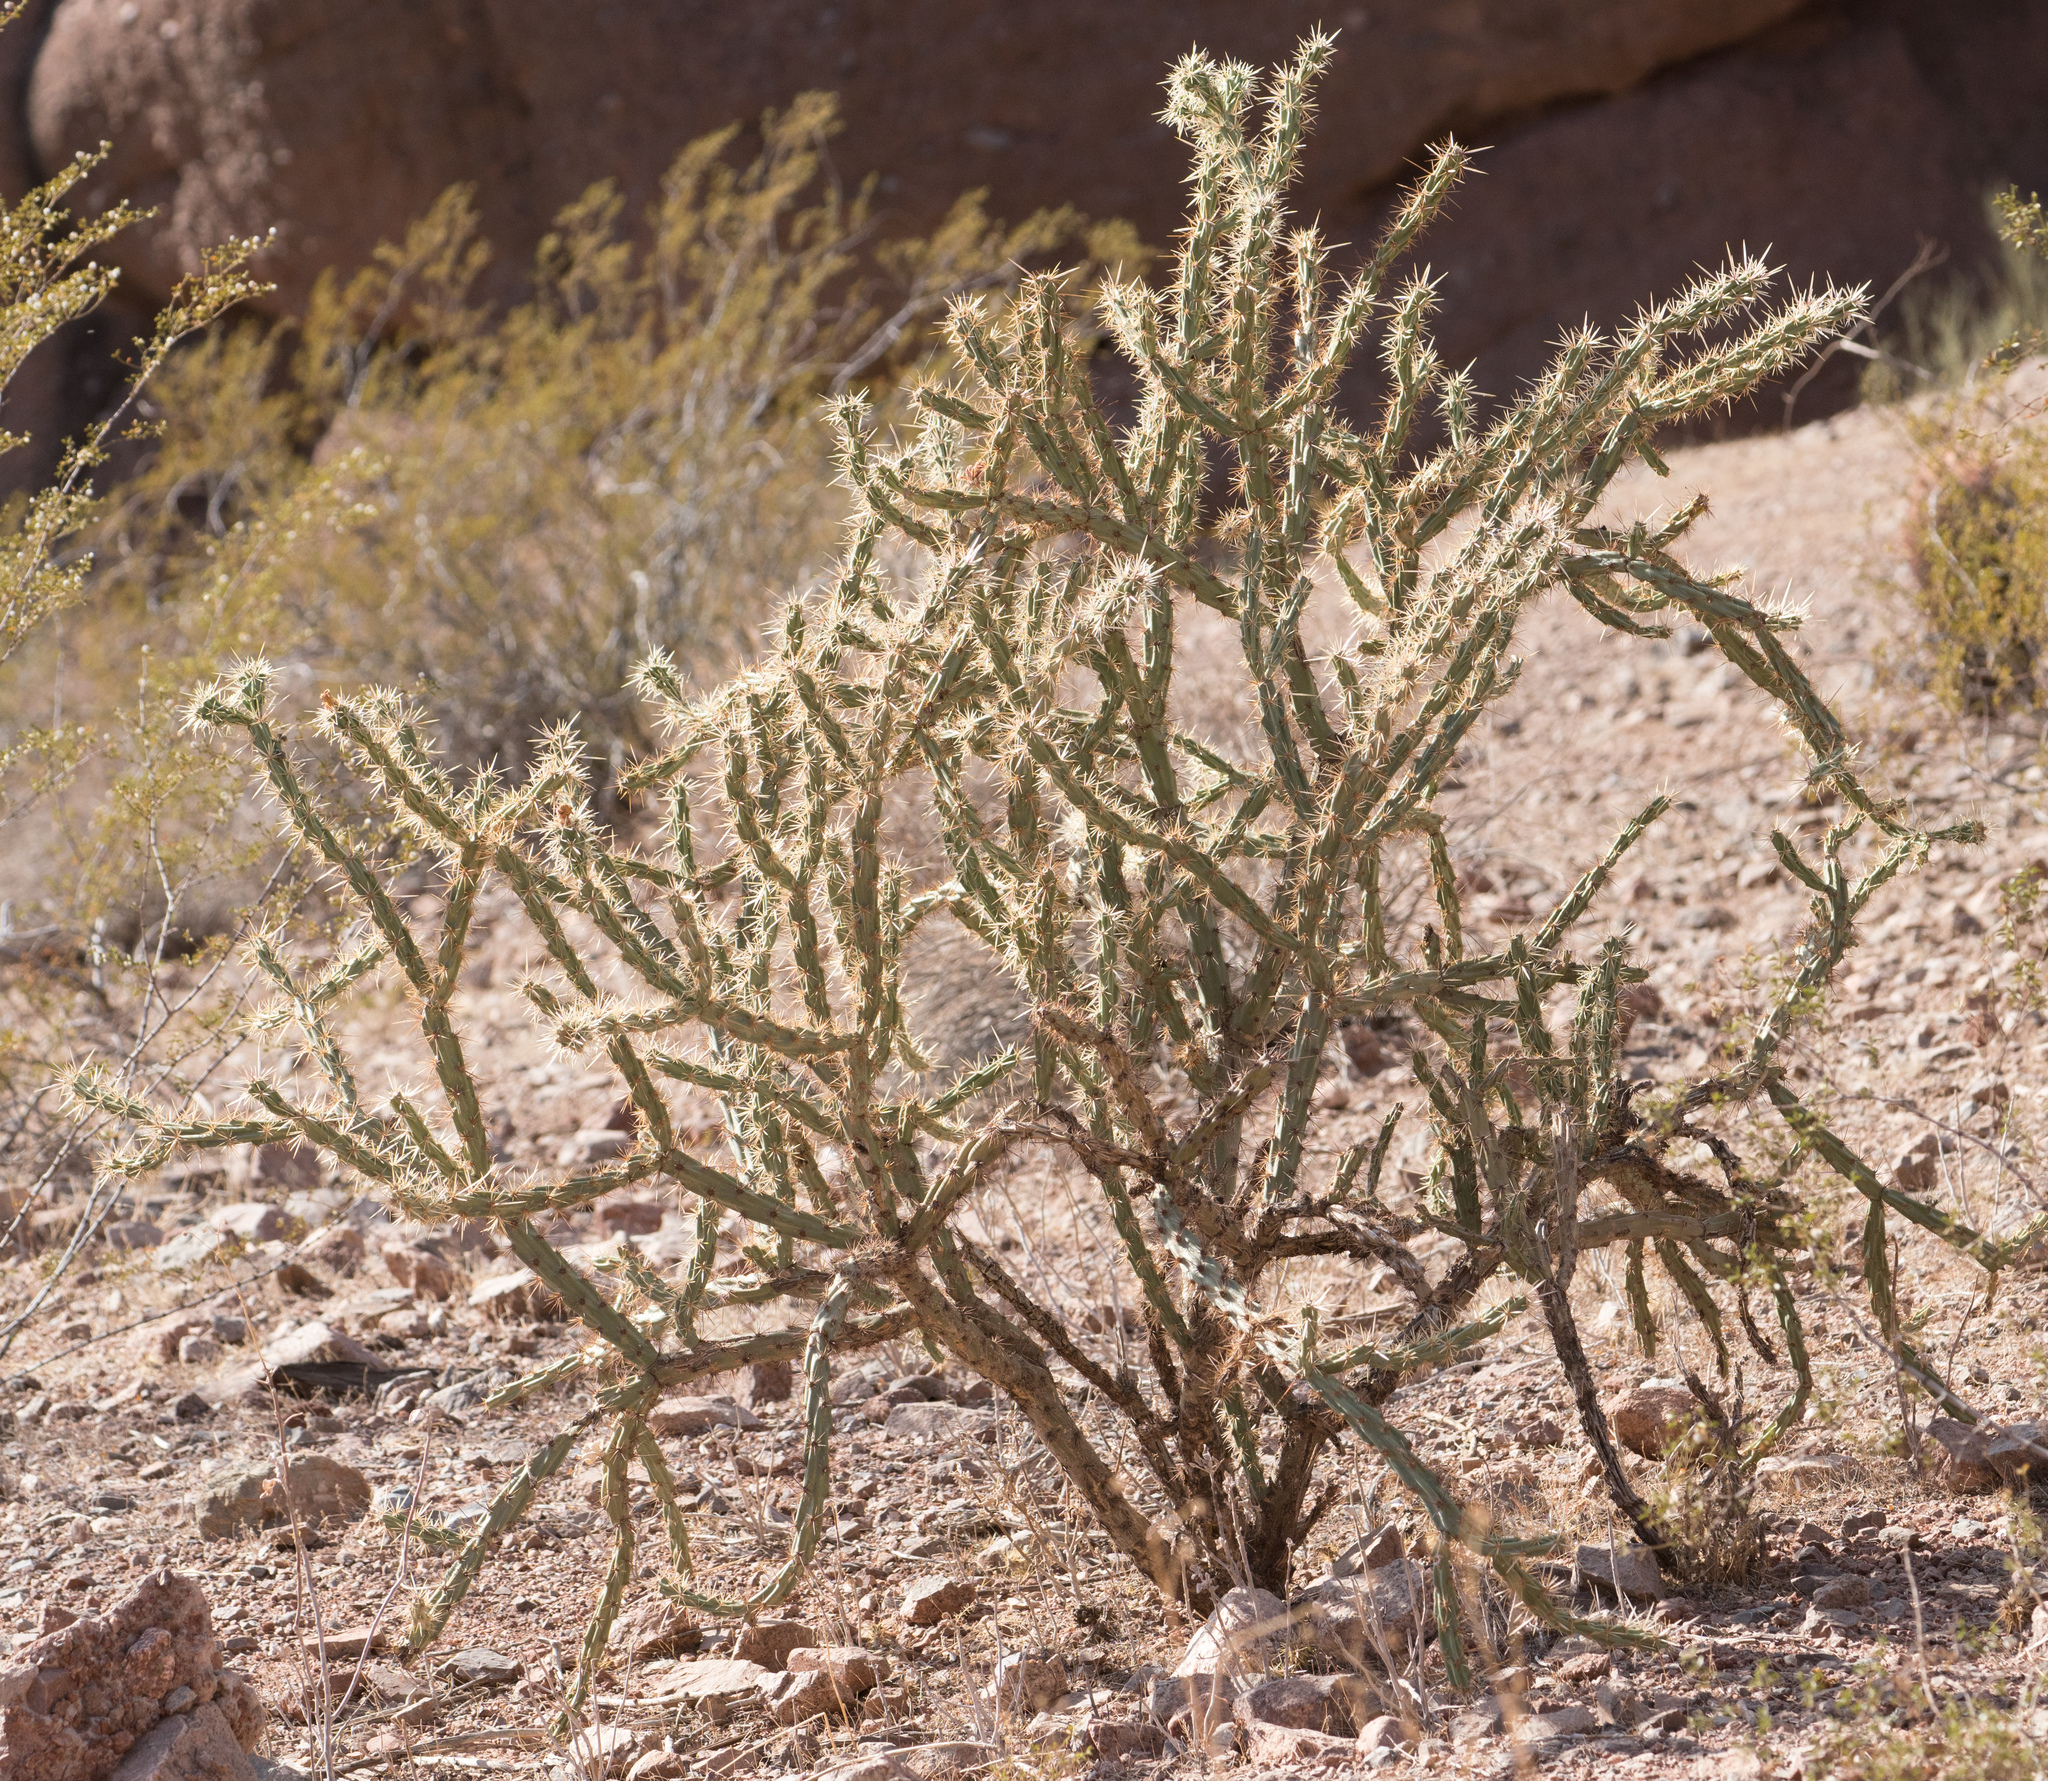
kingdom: Plantae
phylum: Tracheophyta
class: Magnoliopsida
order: Caryophyllales
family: Cactaceae
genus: Cylindropuntia
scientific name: Cylindropuntia acanthocarpa
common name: Buckhorn cholla
